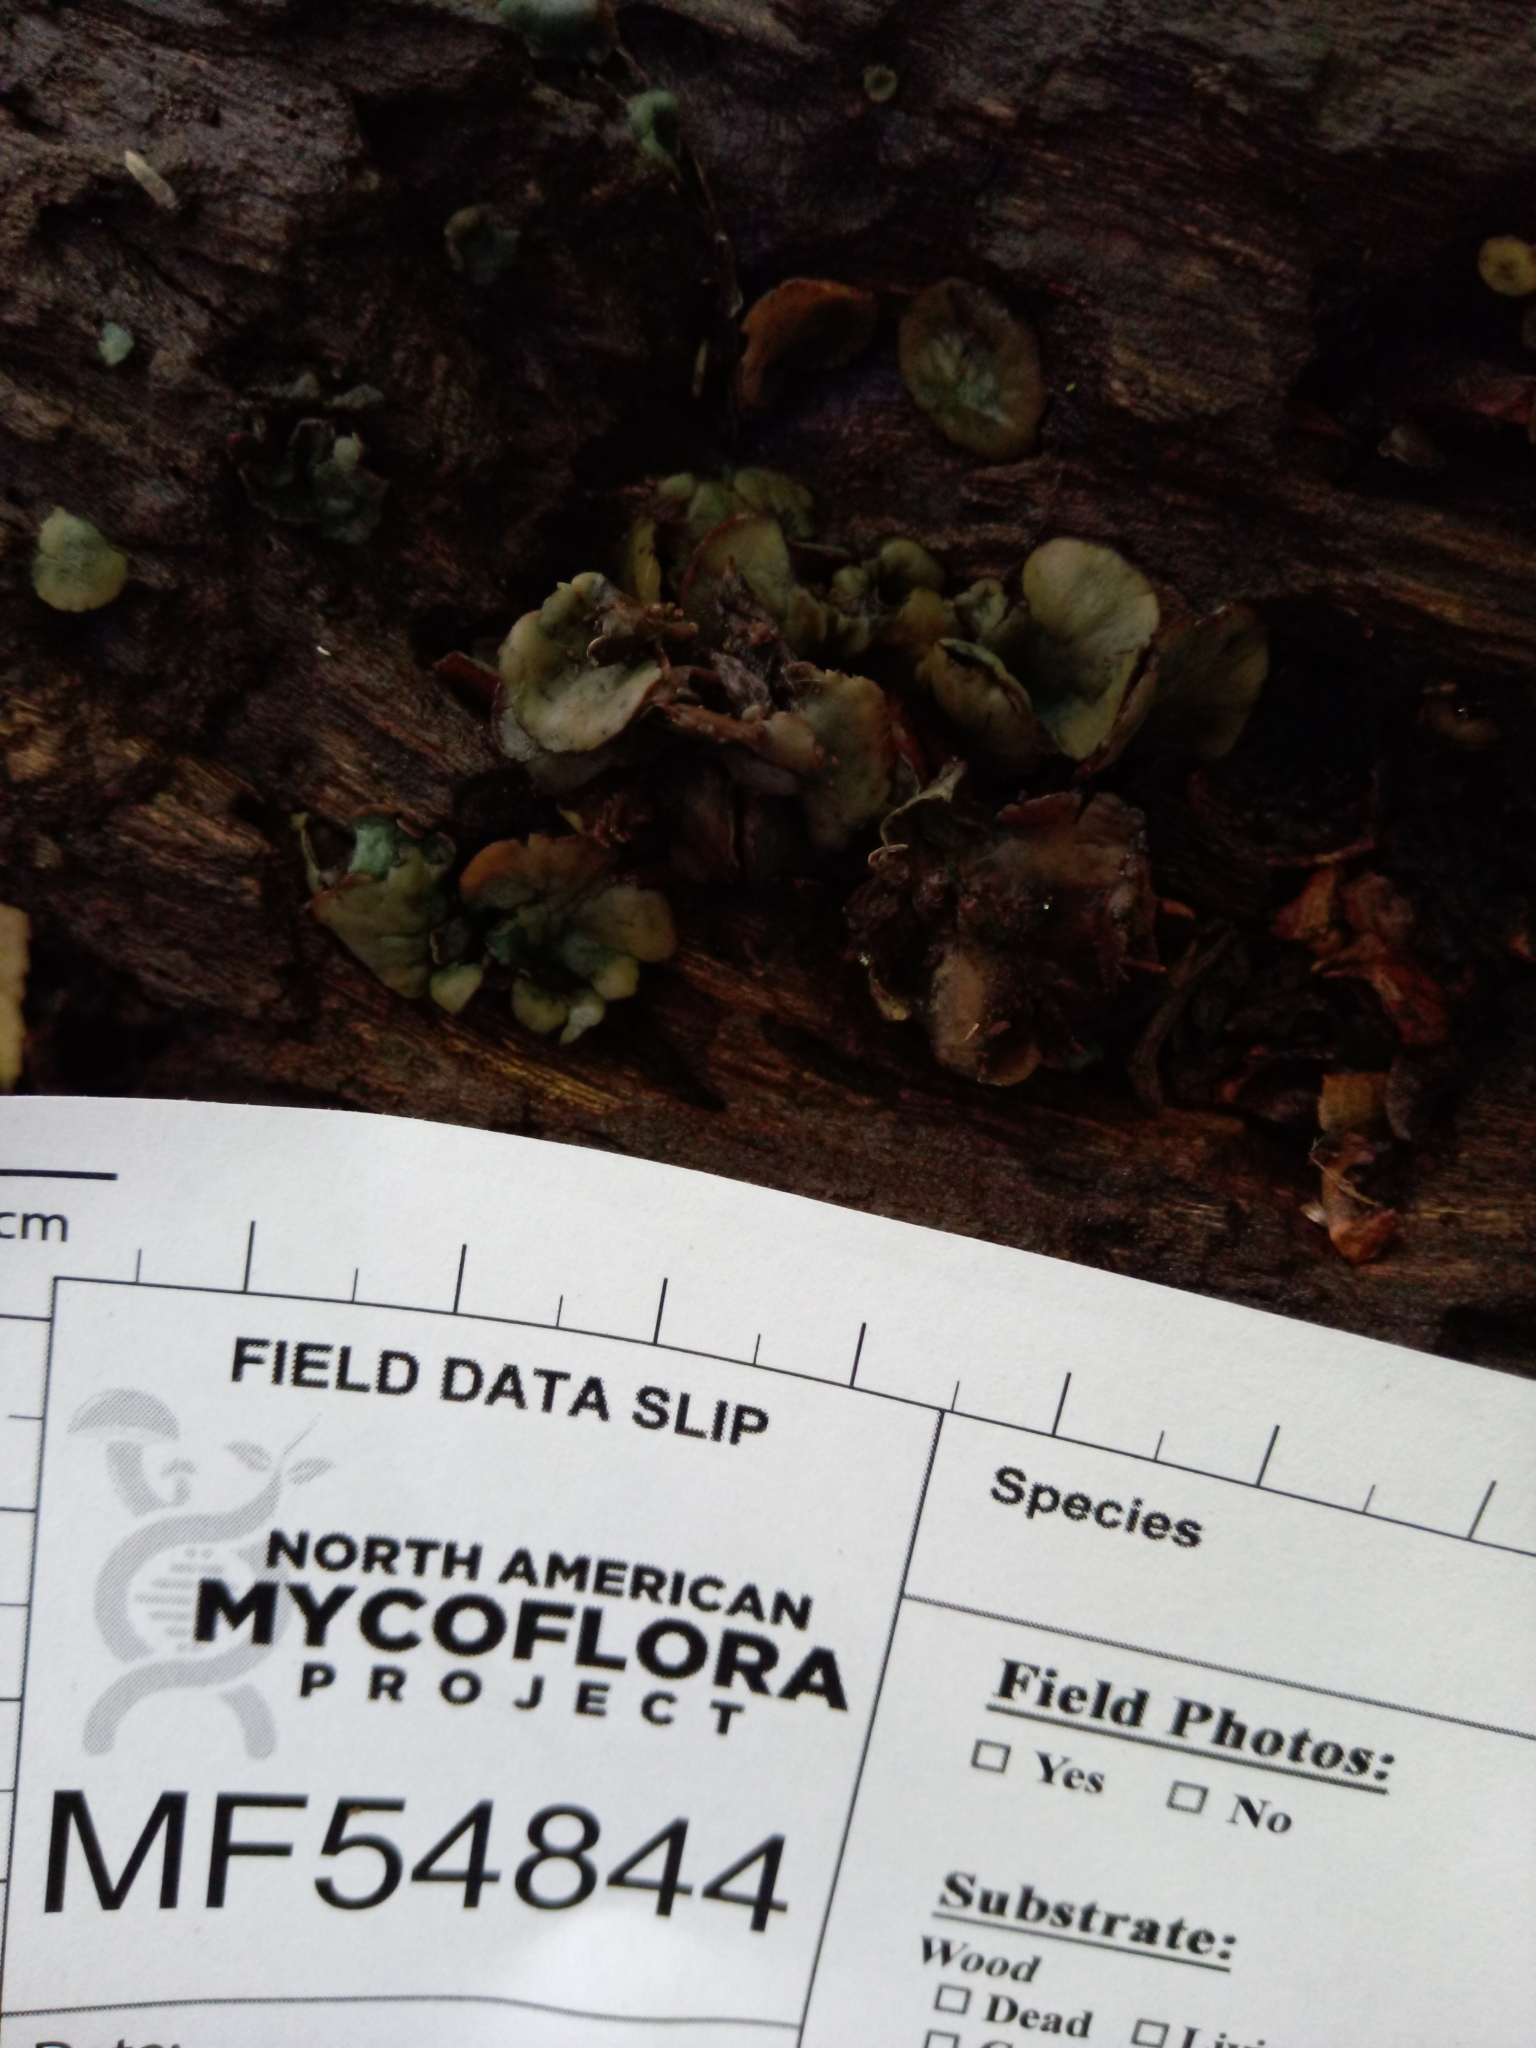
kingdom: Fungi
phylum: Ascomycota
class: Leotiomycetes
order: Helotiales
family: Cenangiaceae
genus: Chlorencoelia
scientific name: Chlorencoelia versiformis
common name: Flea's ear
